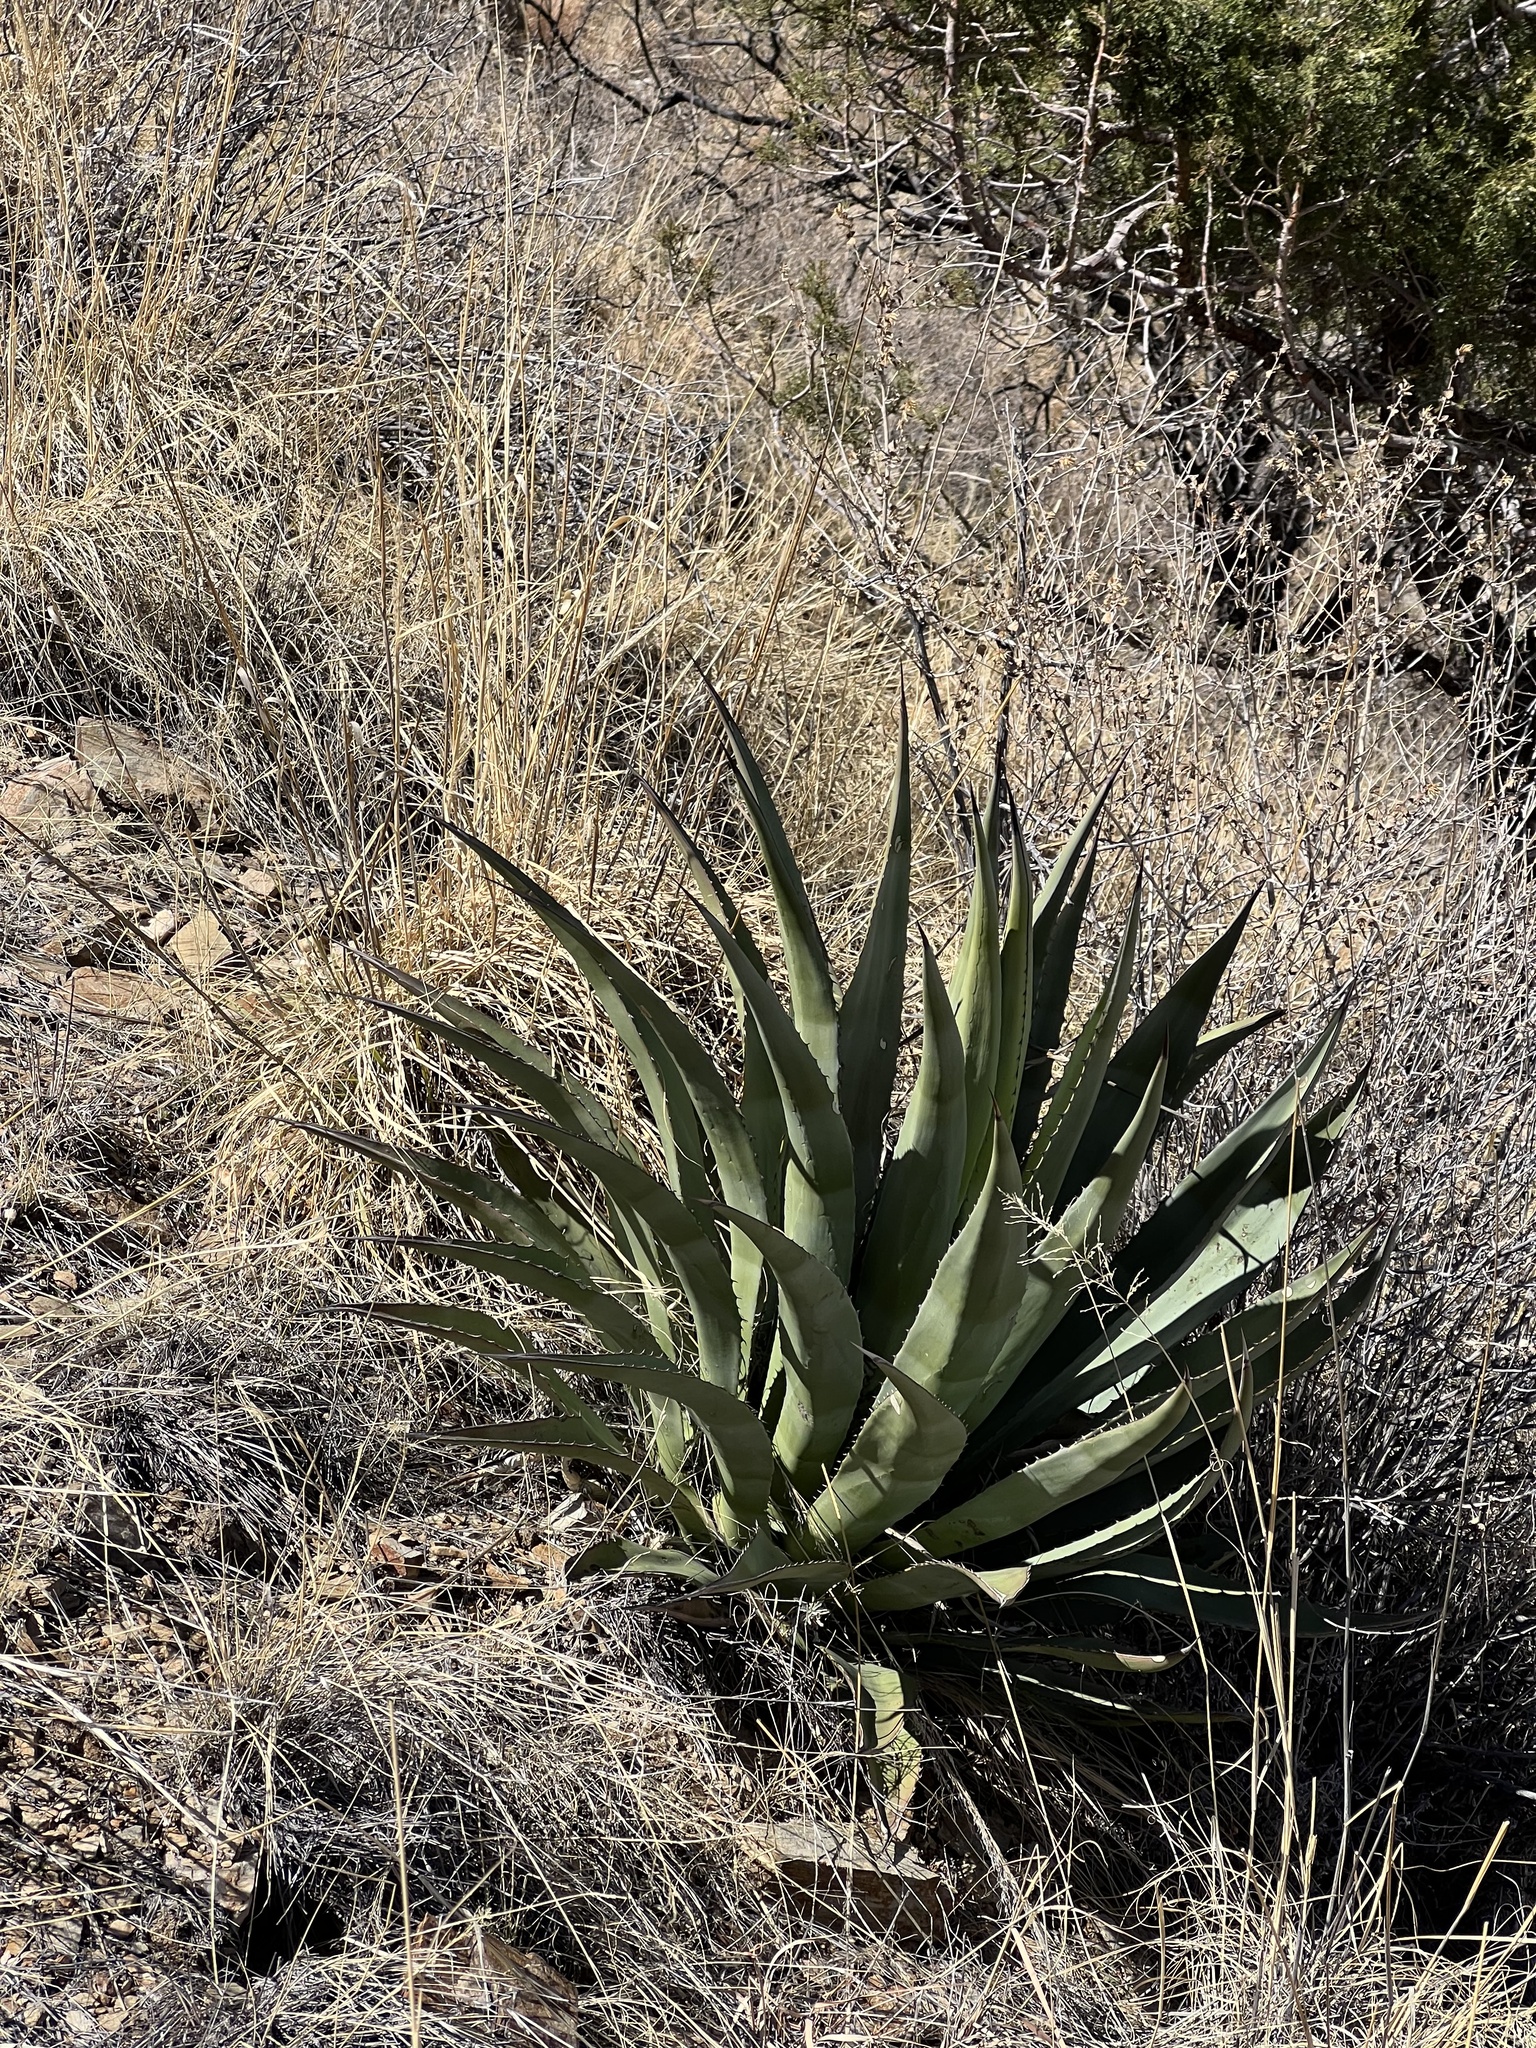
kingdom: Plantae
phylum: Tracheophyta
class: Liliopsida
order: Asparagales
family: Asparagaceae
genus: Agave
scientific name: Agave palmeri
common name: Palmer agave
